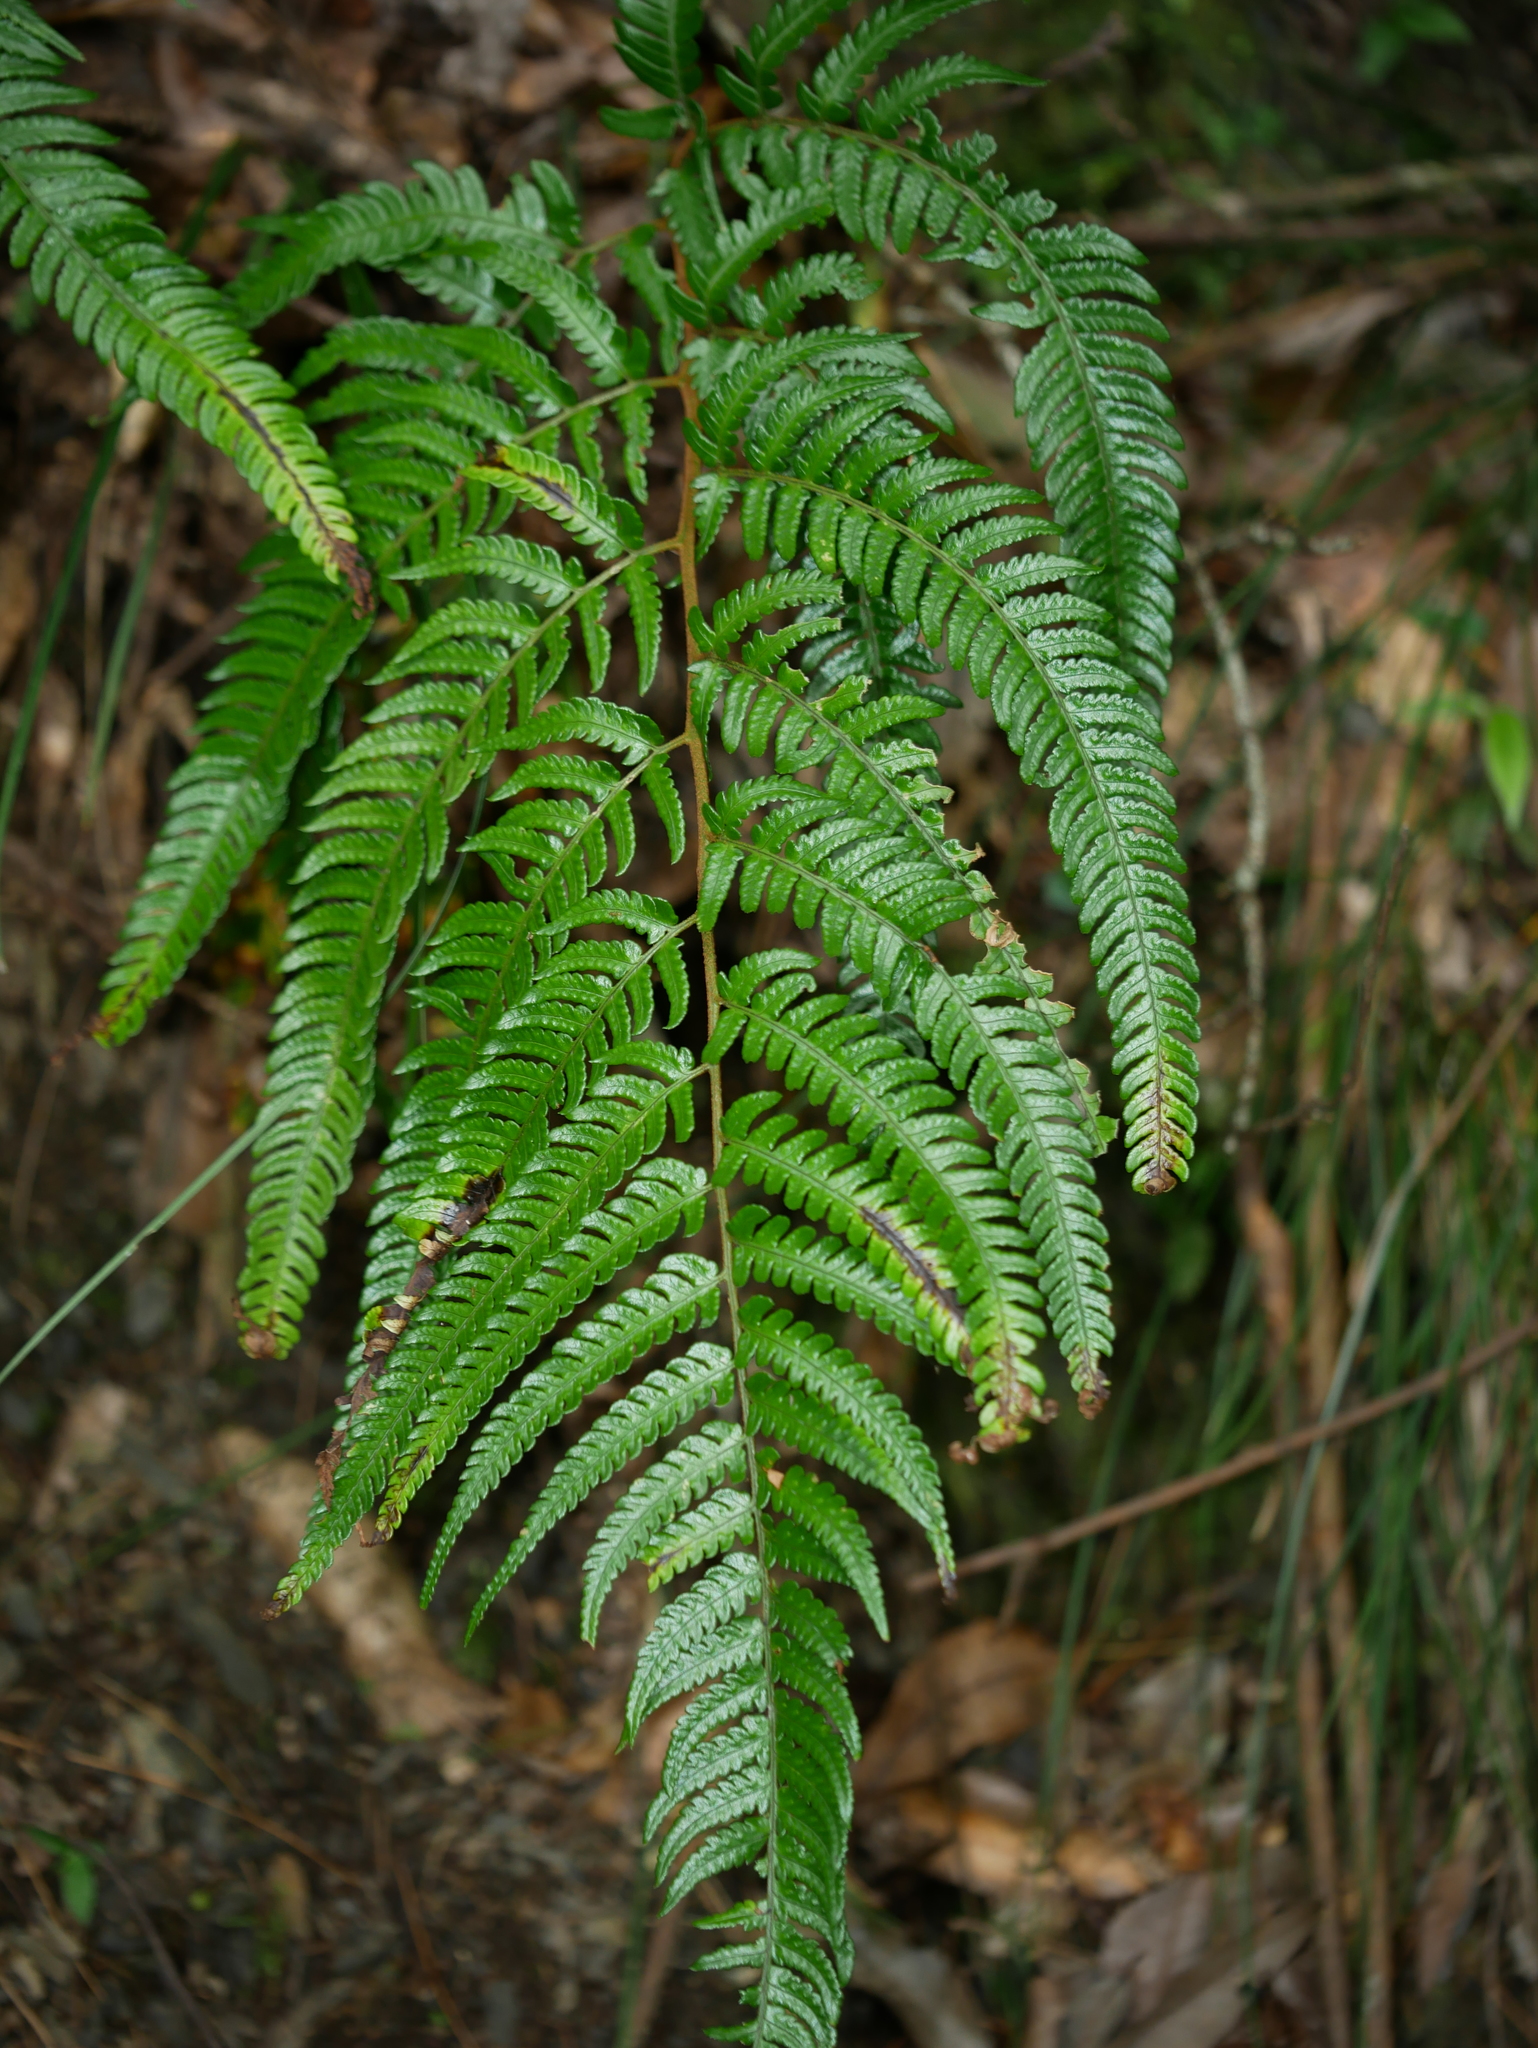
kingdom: Plantae
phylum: Tracheophyta
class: Polypodiopsida
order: Polypodiales
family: Dryopteridaceae
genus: Dryopteris
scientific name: Dryopteris varia
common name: Japanese holly fern
